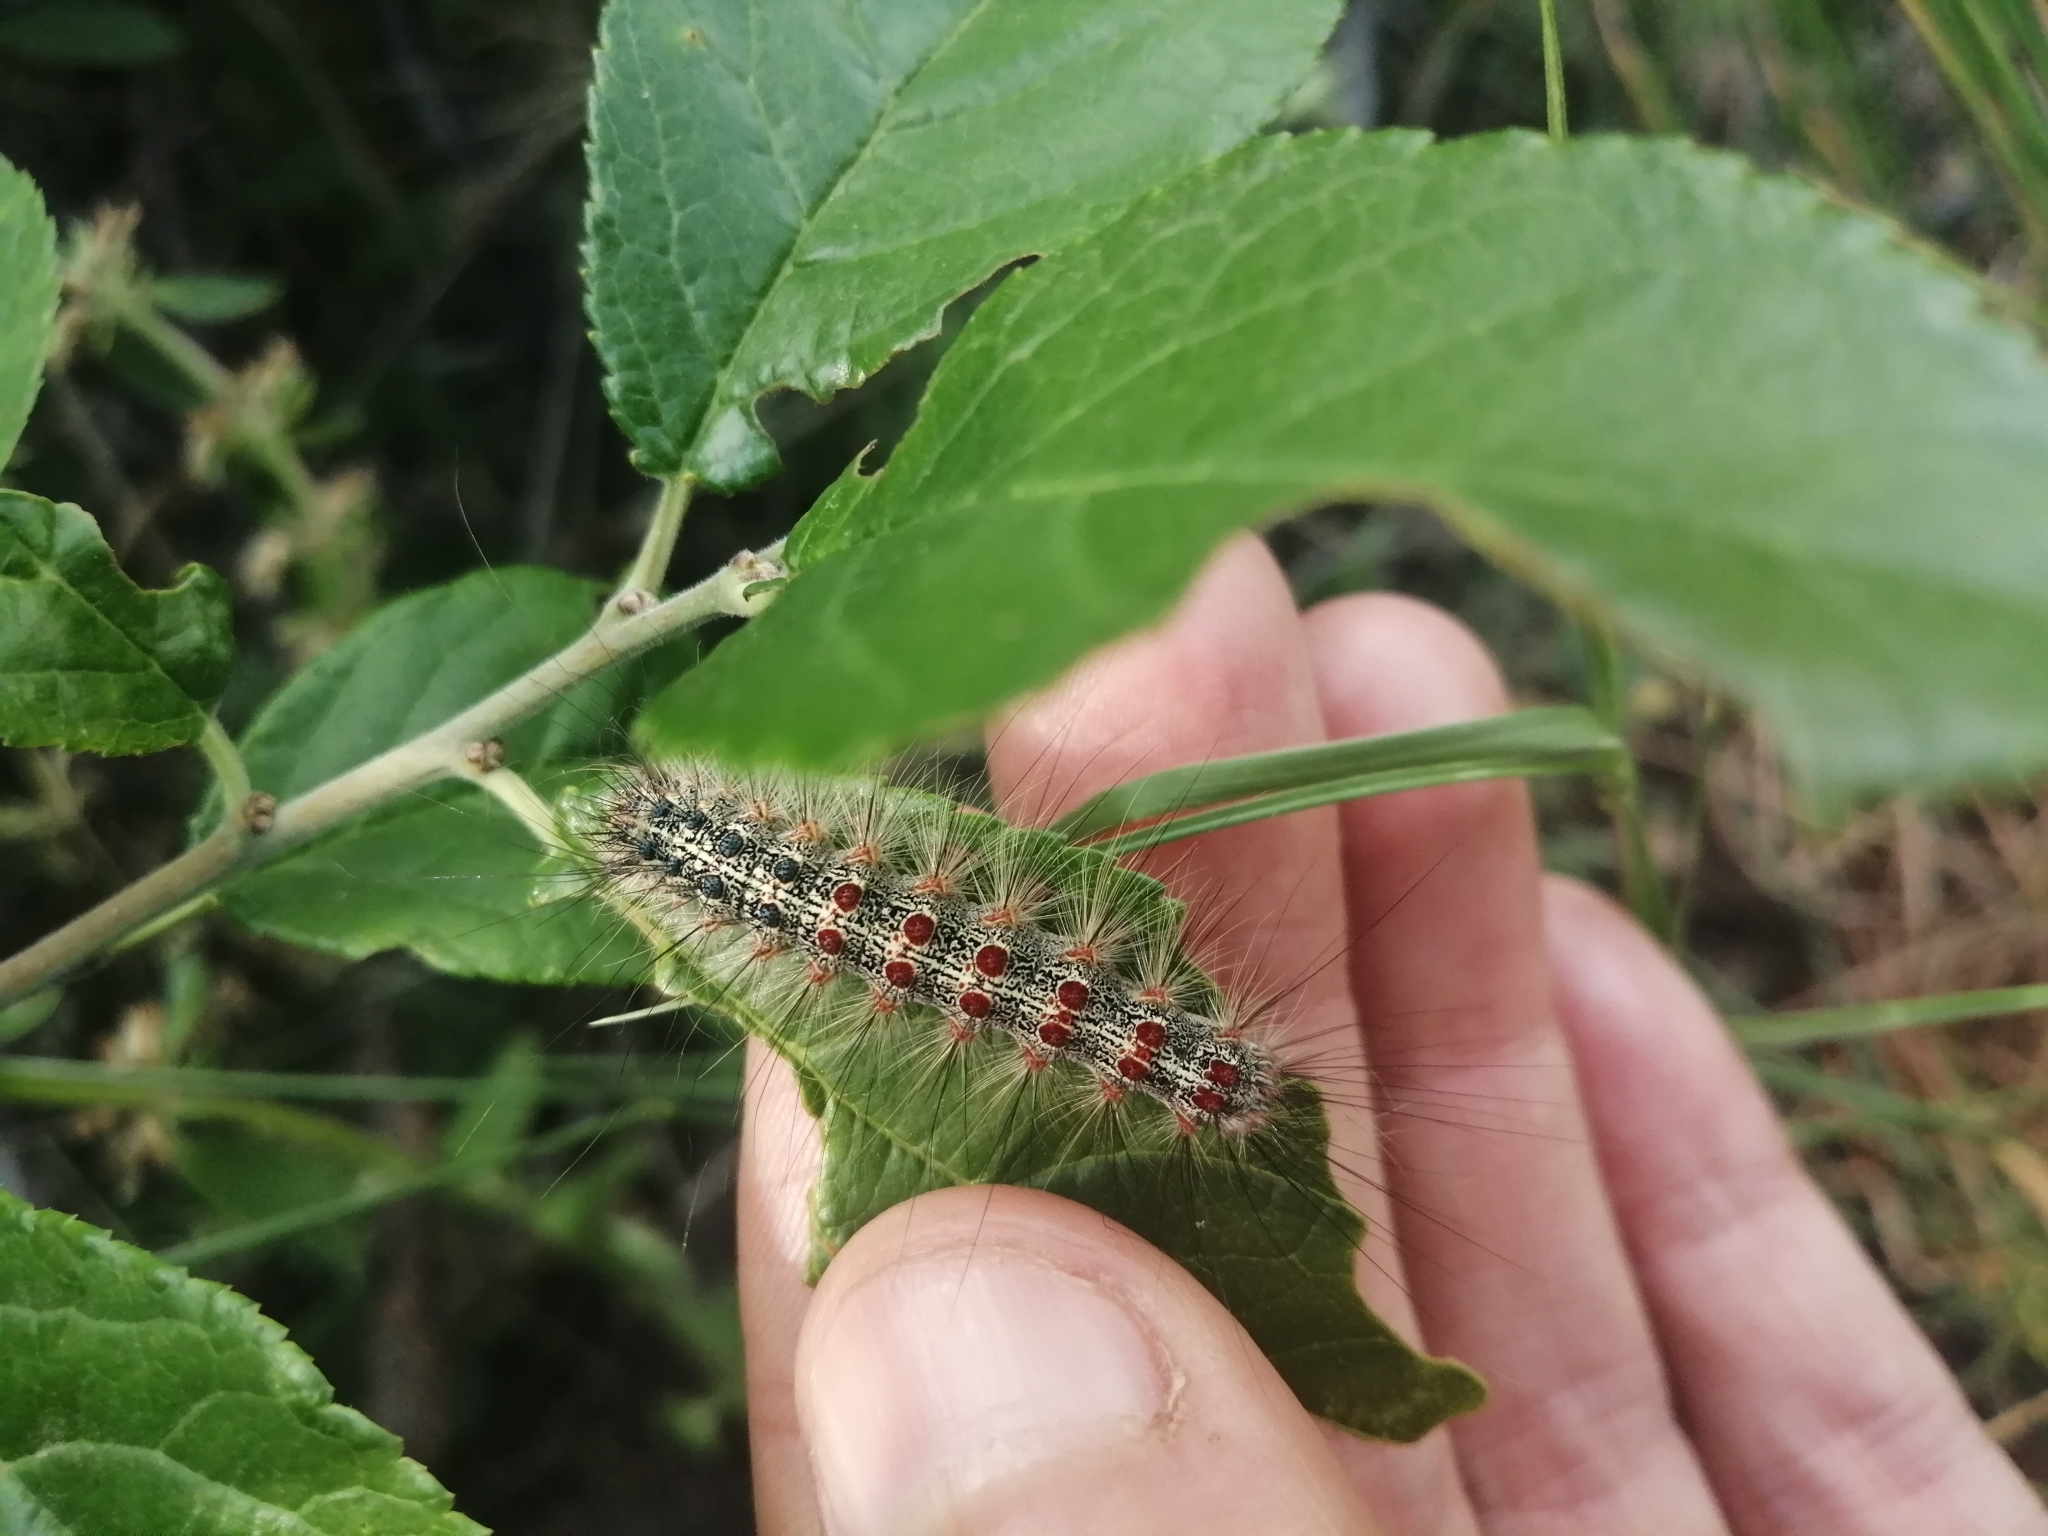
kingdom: Animalia
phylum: Arthropoda
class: Insecta
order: Lepidoptera
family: Erebidae
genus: Lymantria
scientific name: Lymantria dispar
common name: Gypsy moth
